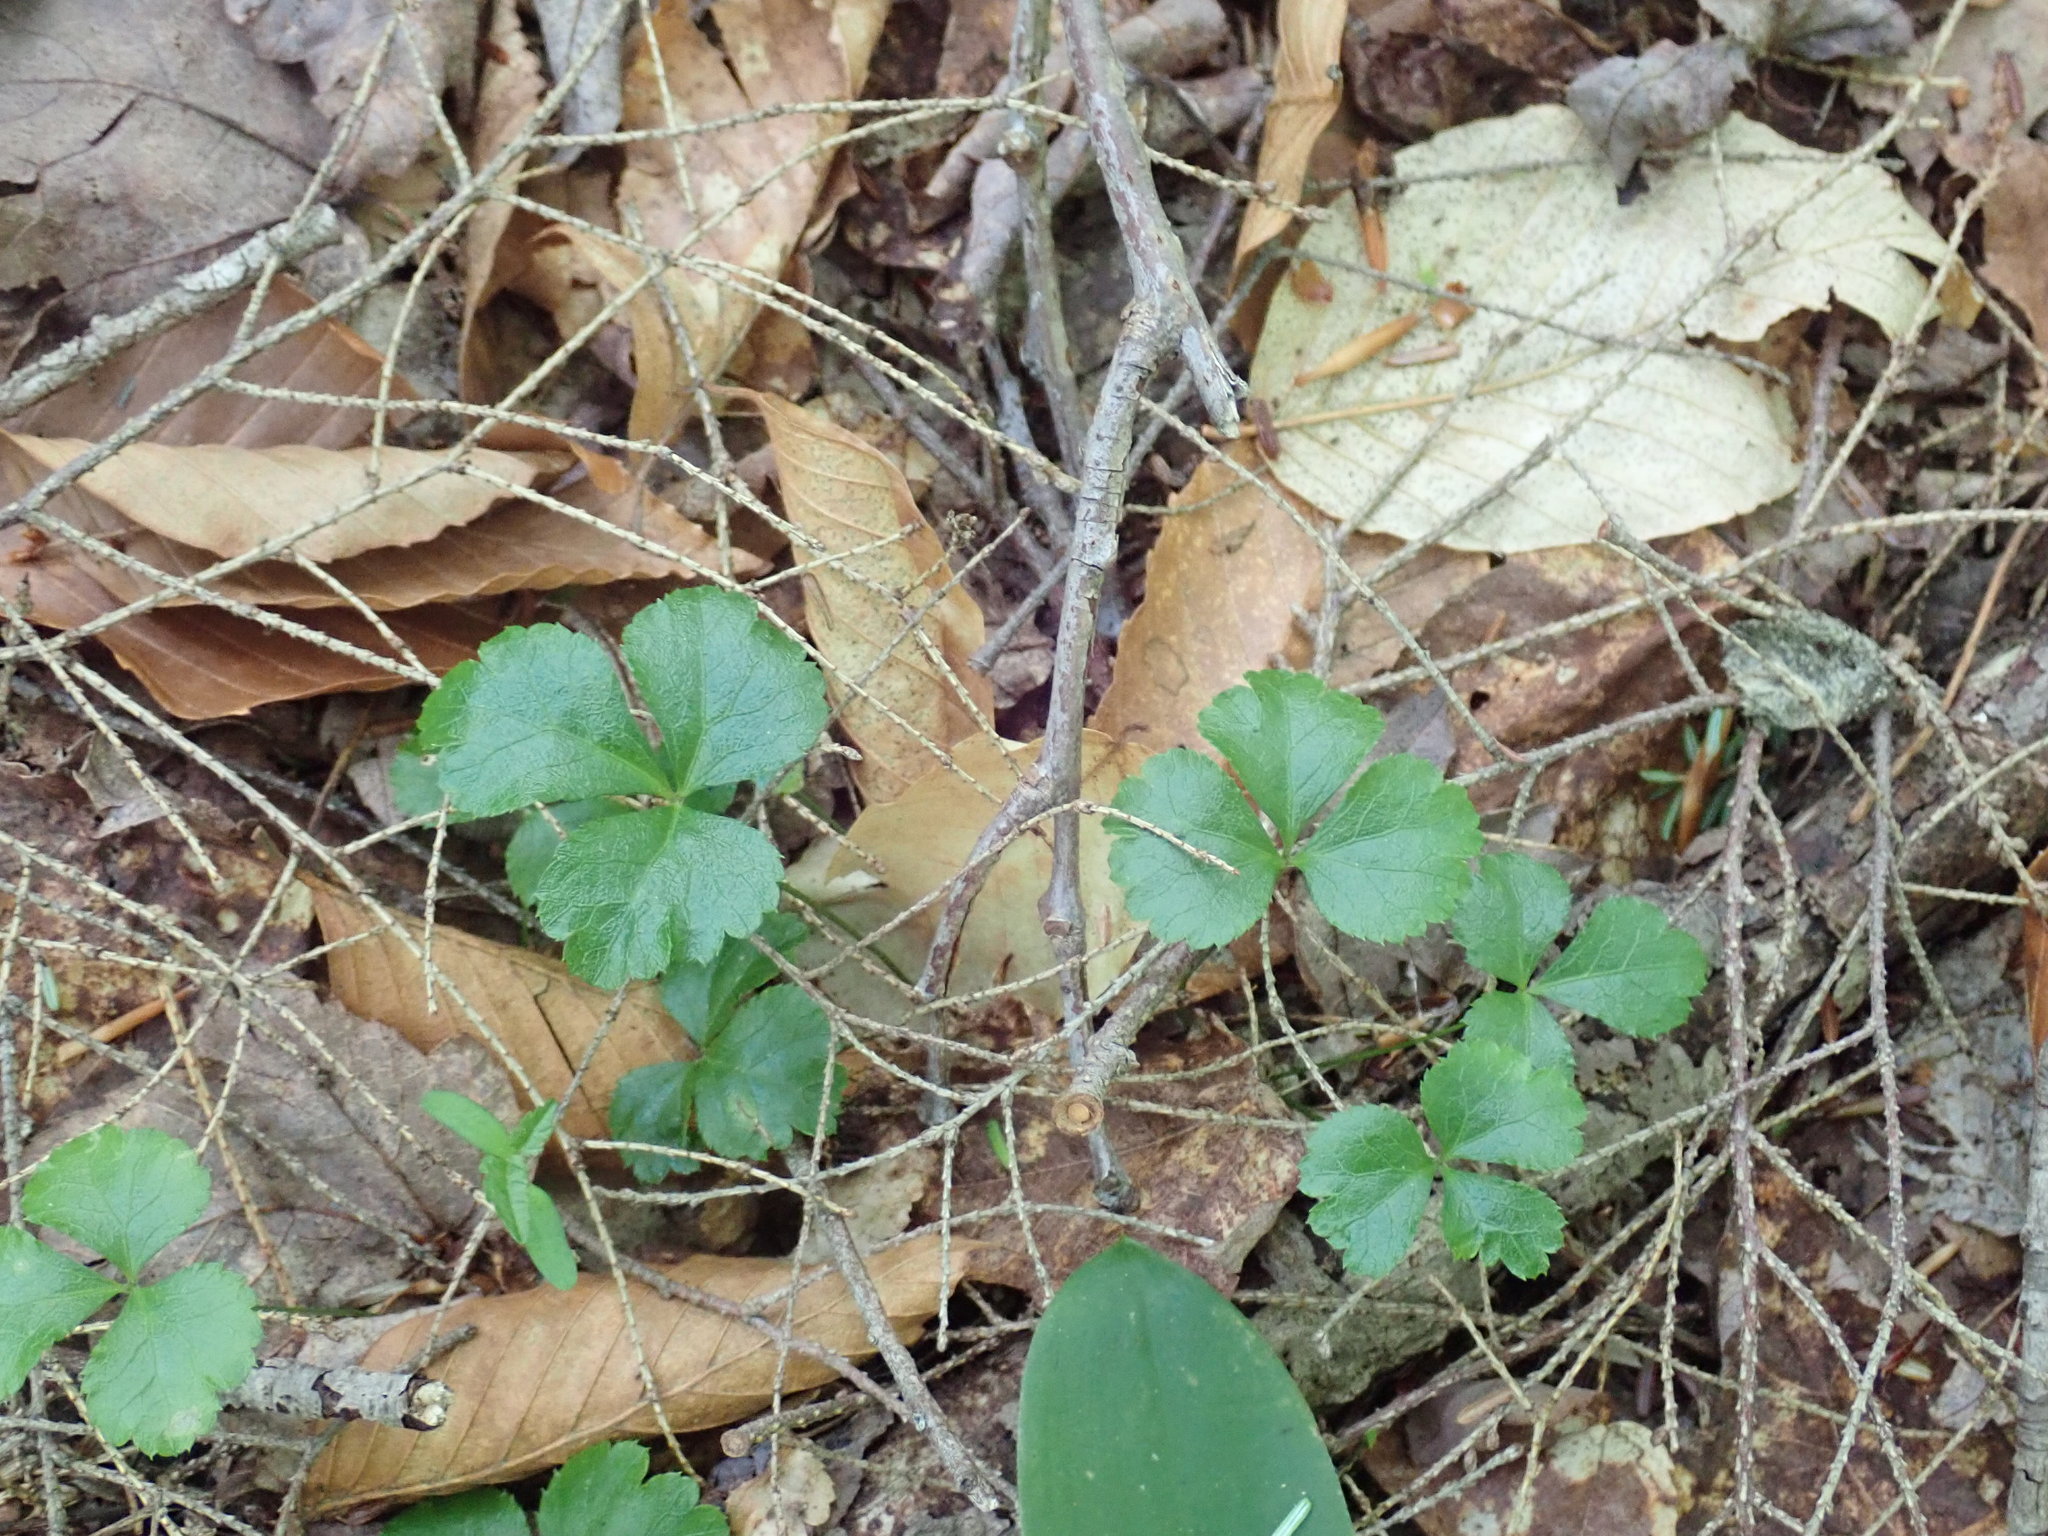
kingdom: Plantae
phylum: Tracheophyta
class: Magnoliopsida
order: Ranunculales
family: Ranunculaceae
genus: Coptis
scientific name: Coptis trifolia
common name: Canker-root
